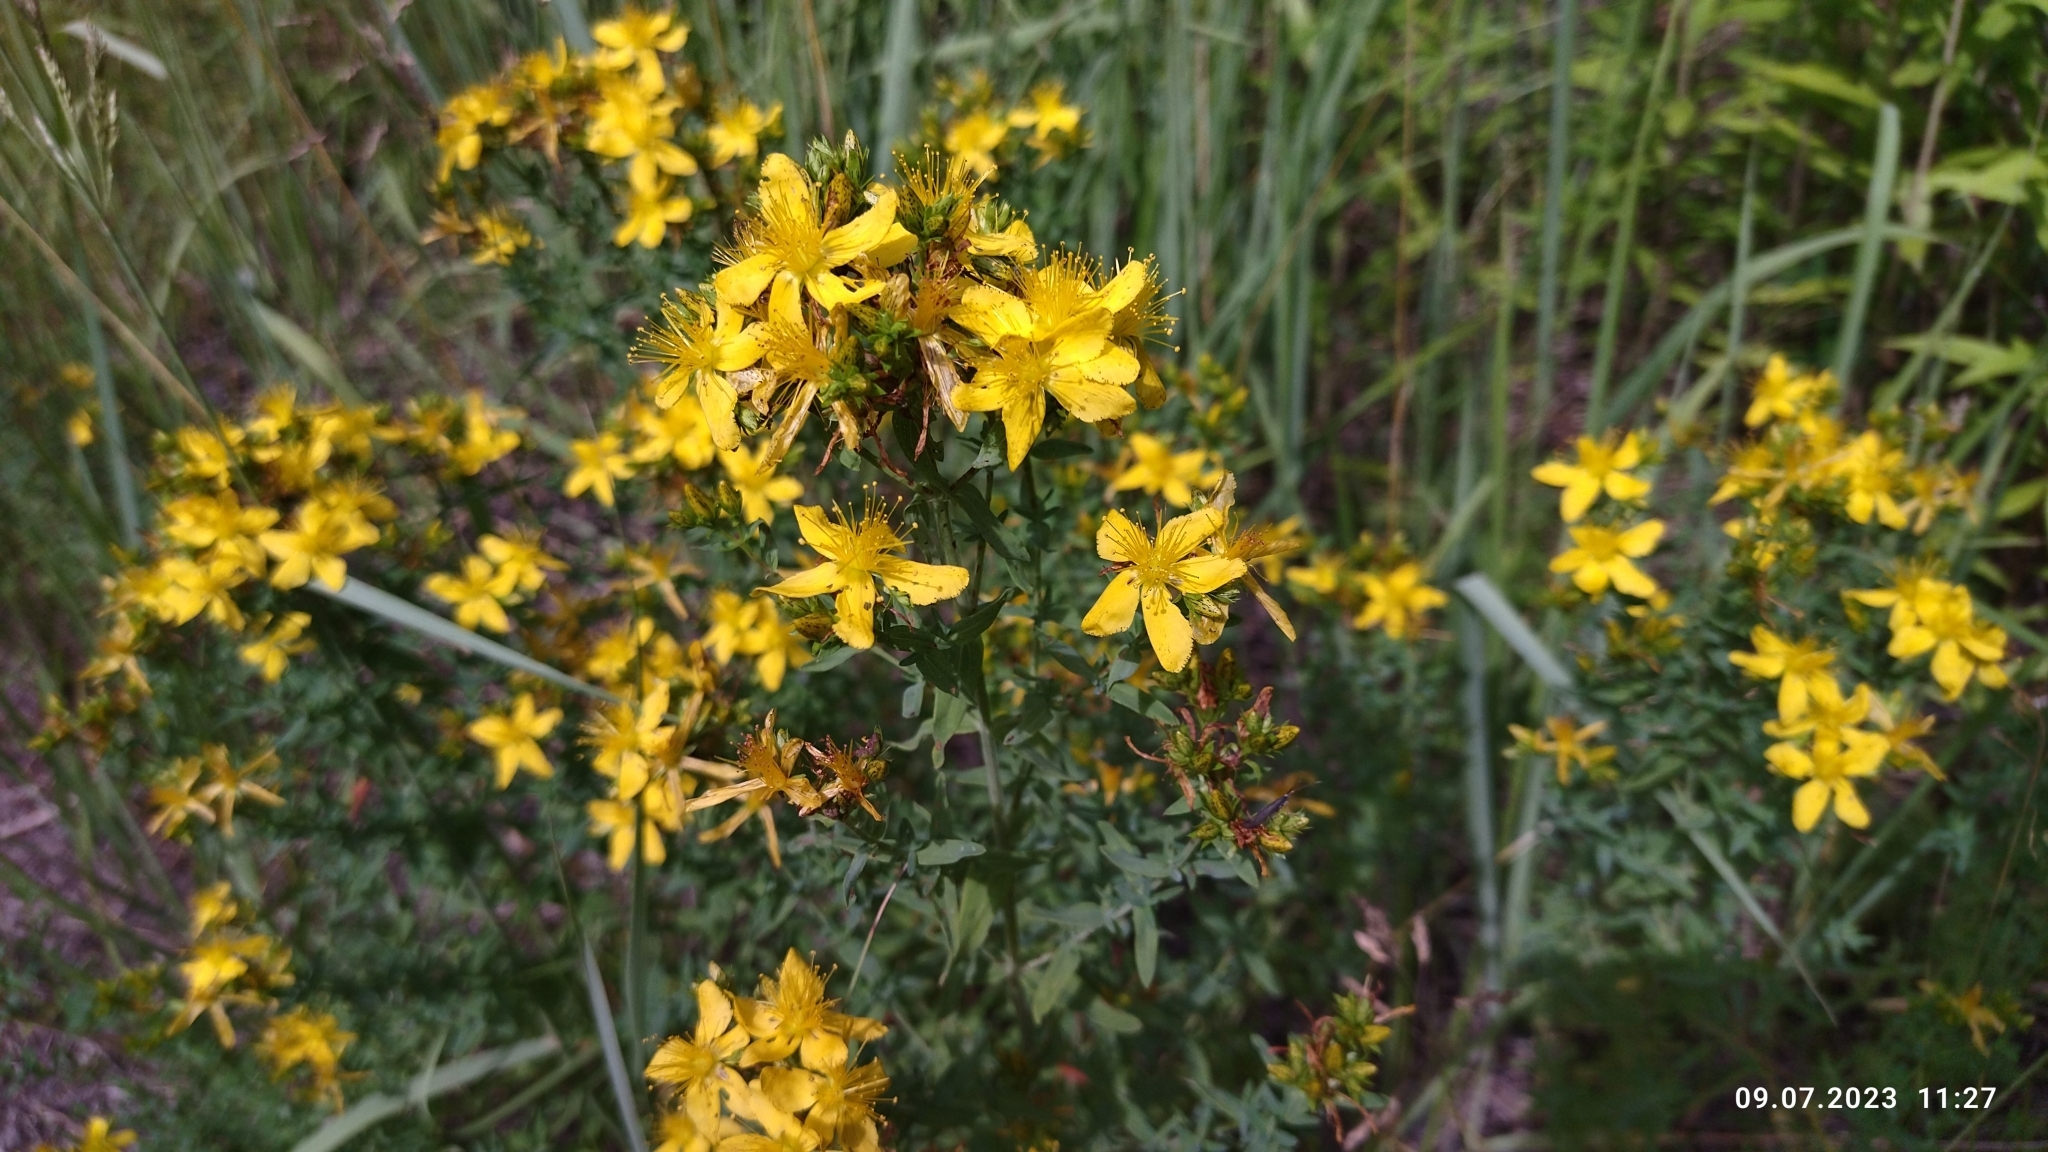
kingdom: Plantae
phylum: Tracheophyta
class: Magnoliopsida
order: Malpighiales
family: Hypericaceae
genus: Hypericum
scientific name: Hypericum perforatum
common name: Common st. johnswort
